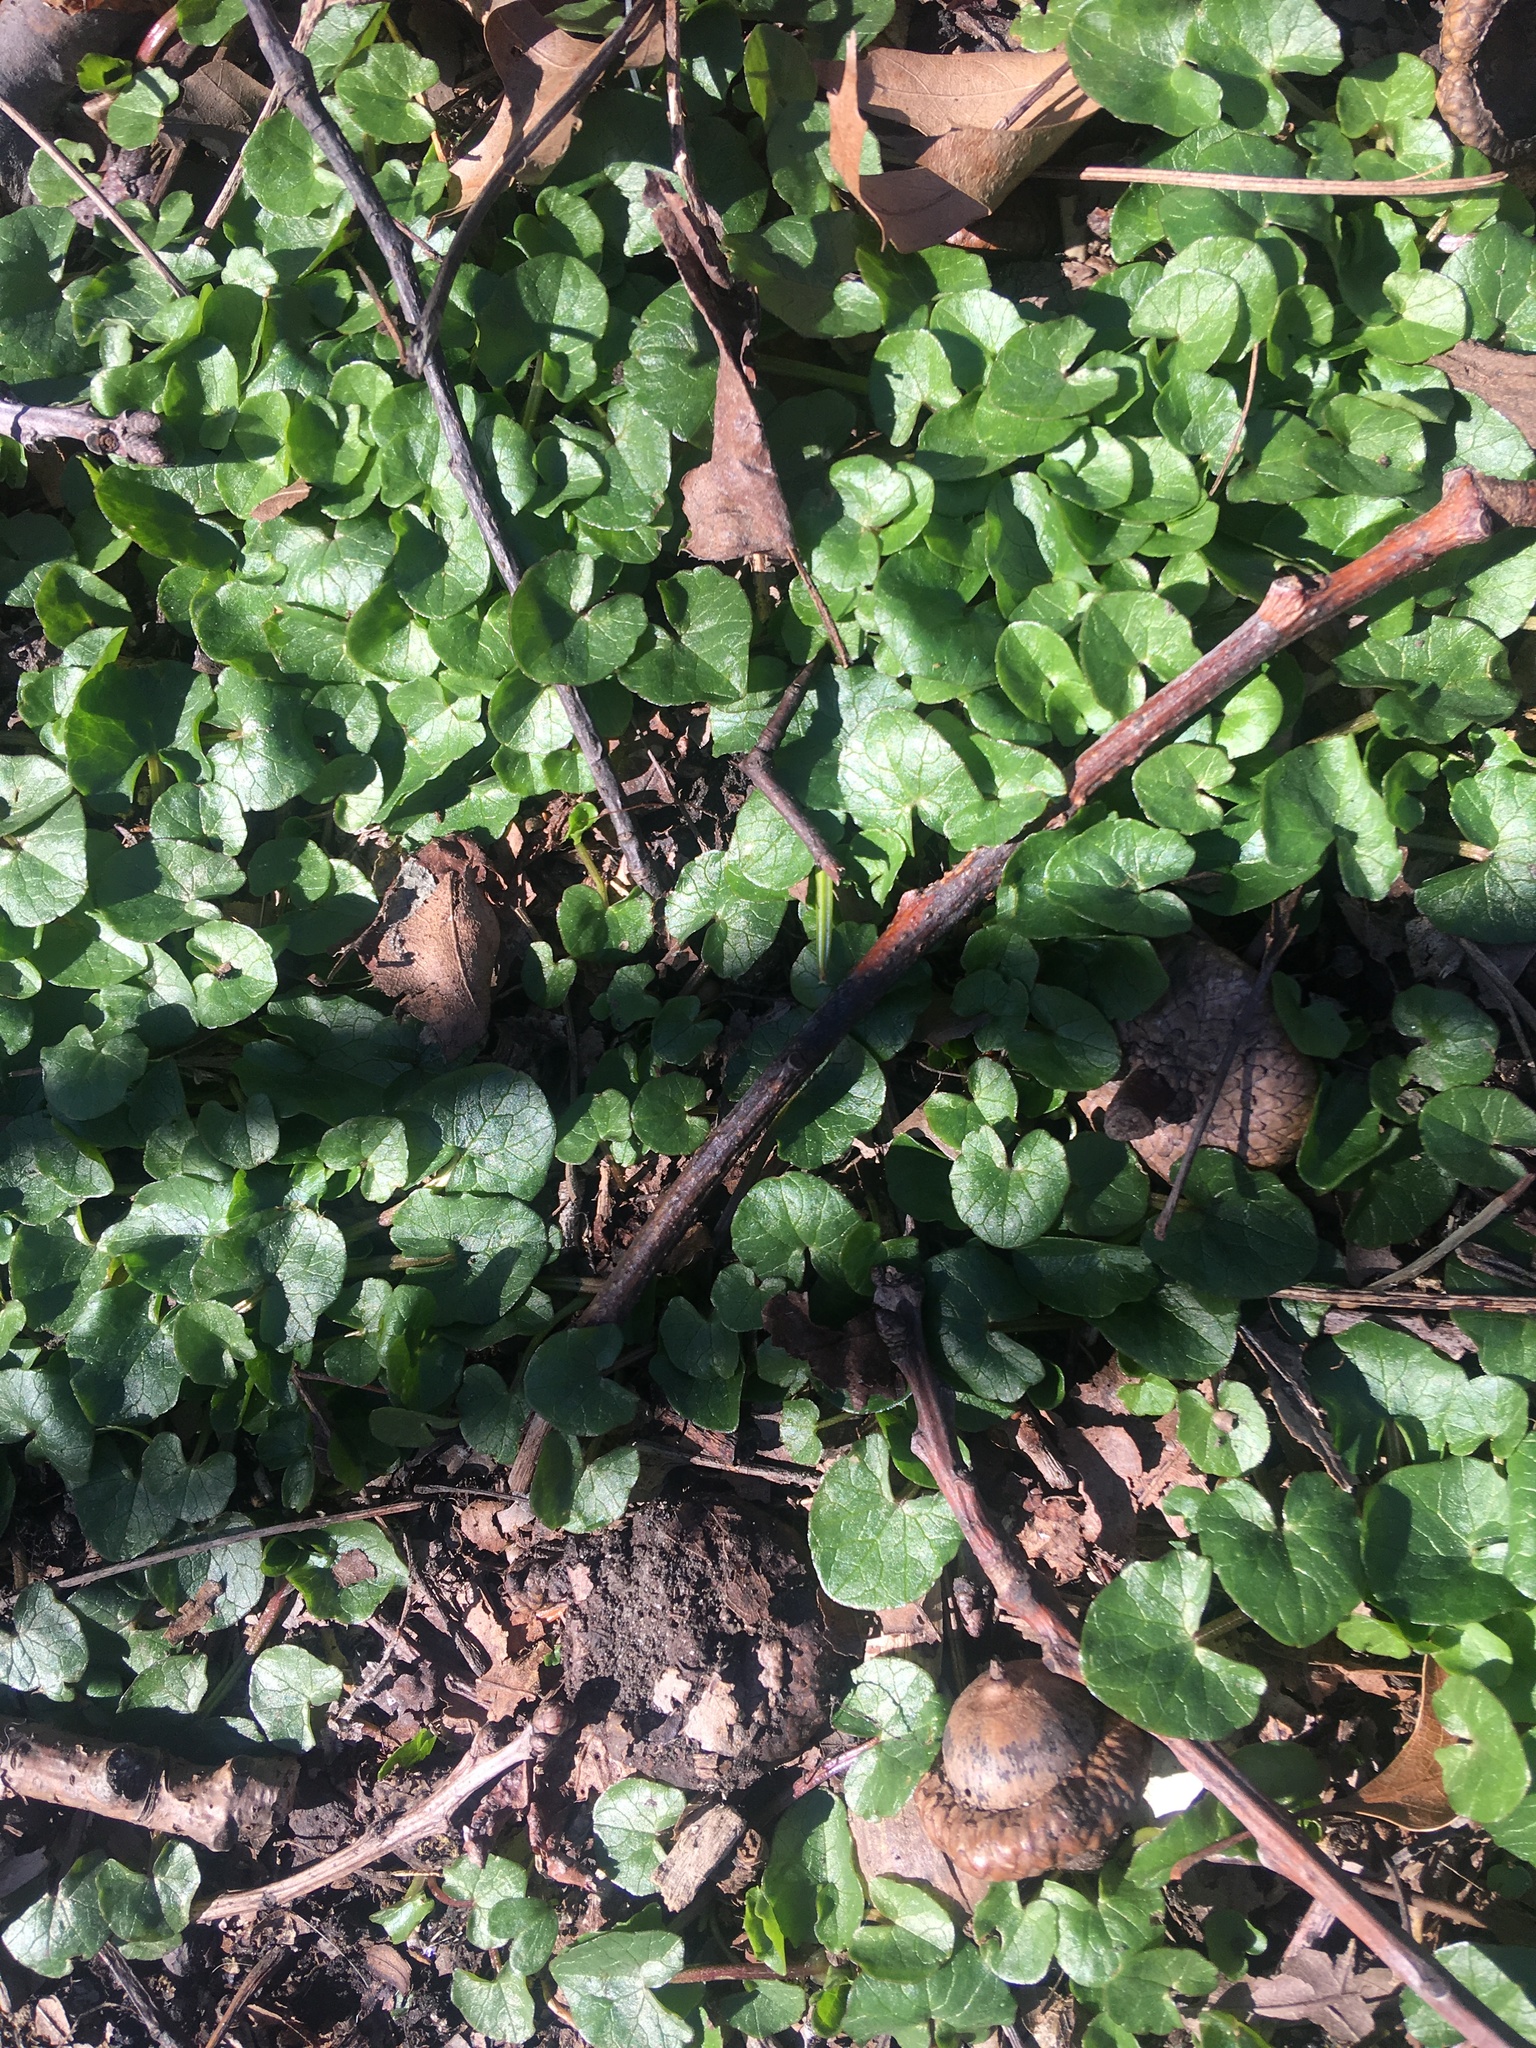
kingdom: Plantae
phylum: Tracheophyta
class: Magnoliopsida
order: Ranunculales
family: Ranunculaceae
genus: Ficaria
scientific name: Ficaria verna
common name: Lesser celandine
